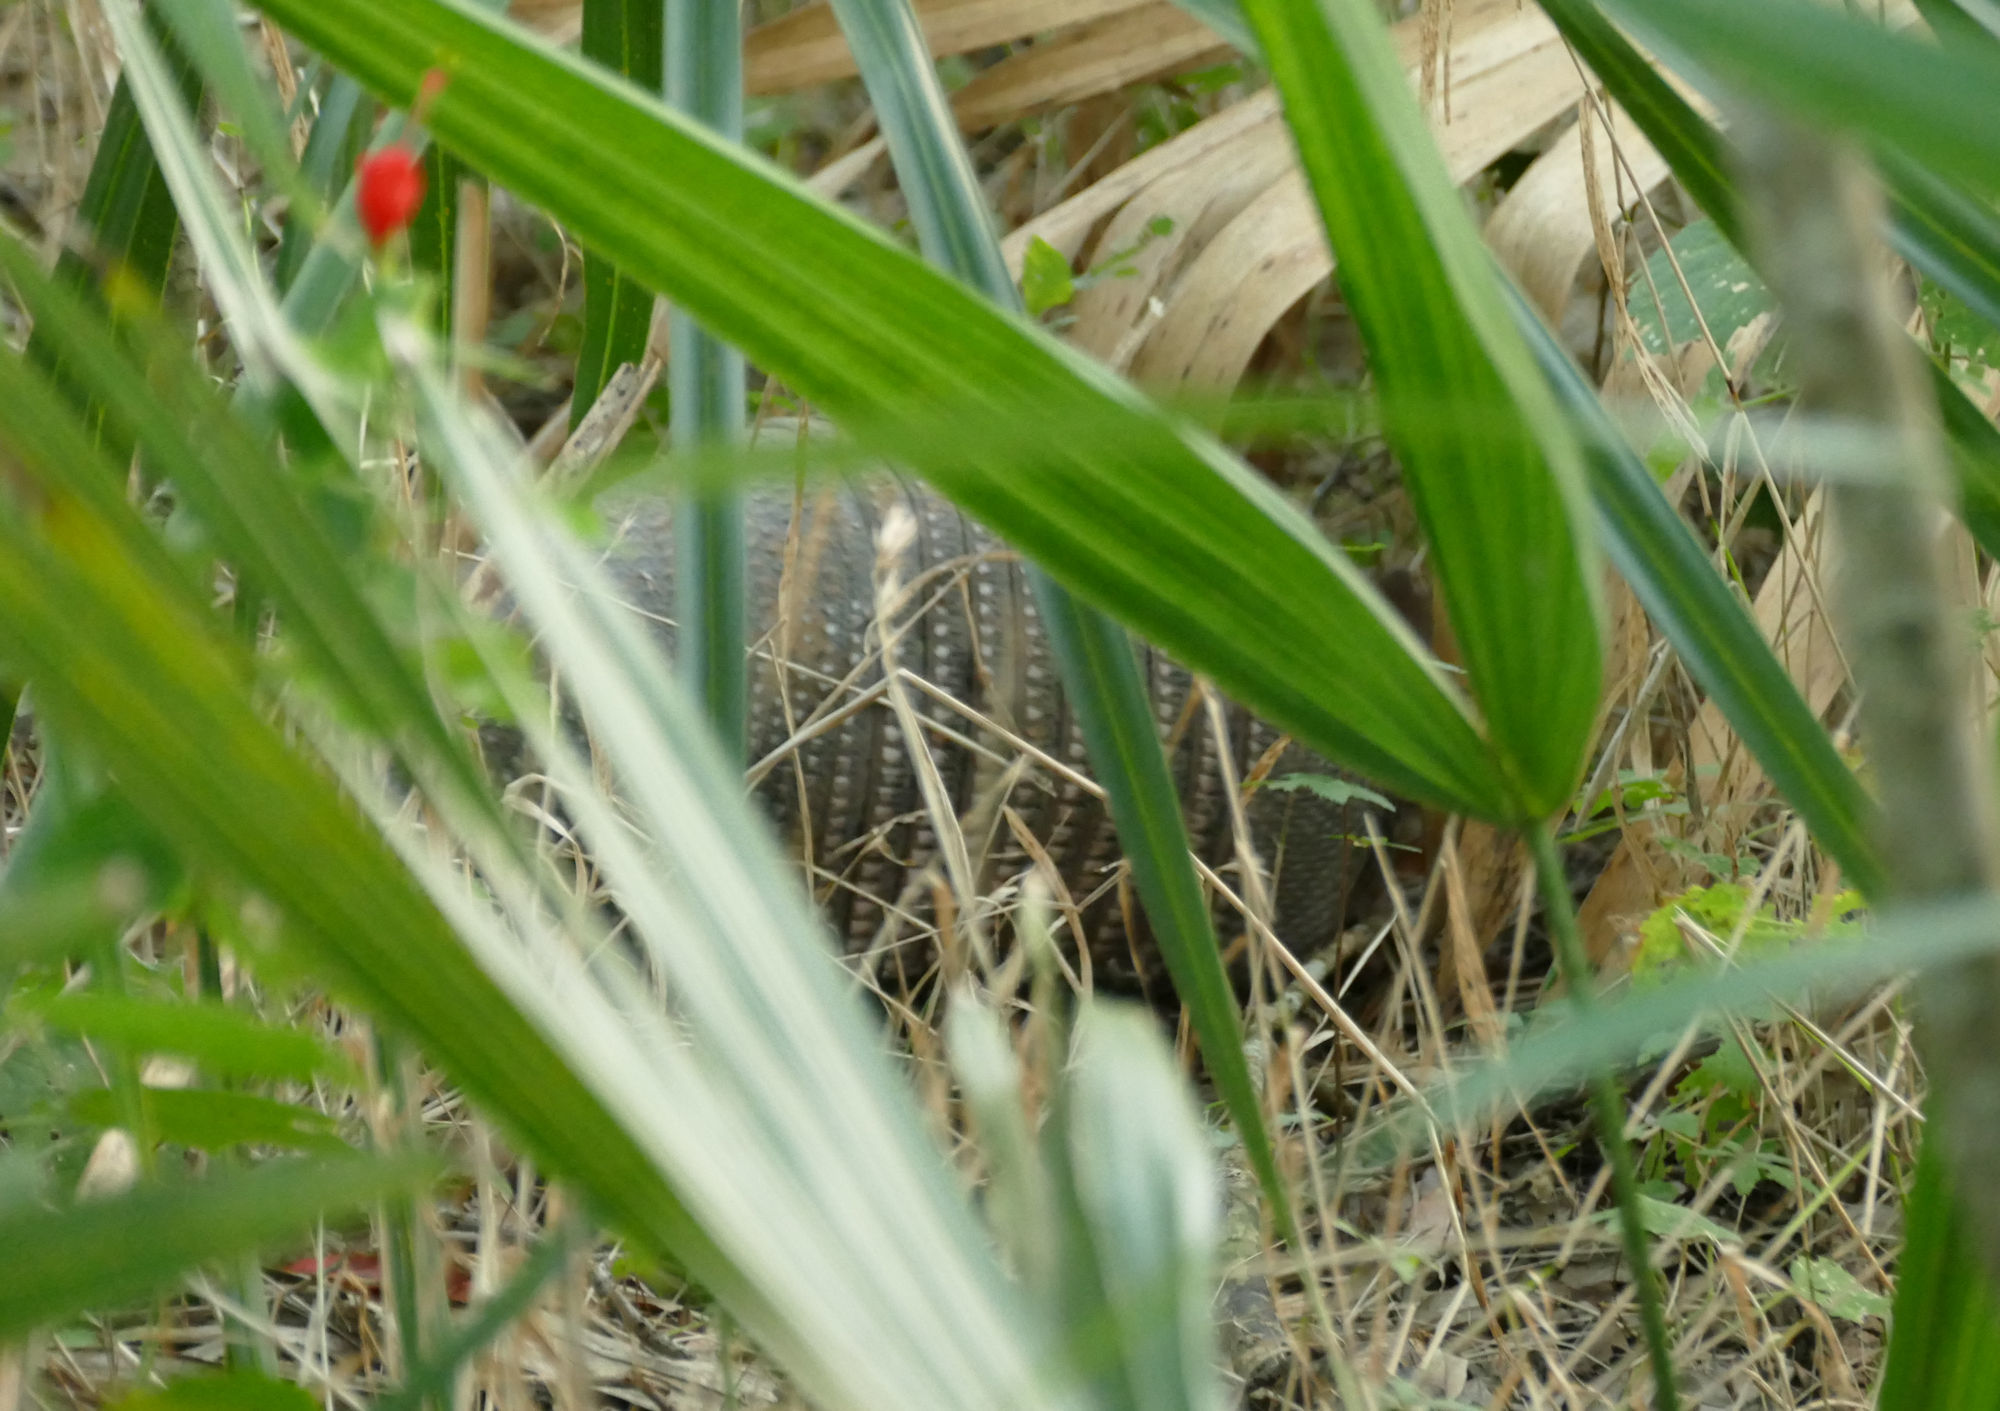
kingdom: Animalia
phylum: Chordata
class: Mammalia
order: Cingulata
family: Dasypodidae
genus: Dasypus
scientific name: Dasypus novemcinctus
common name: Nine-banded armadillo
